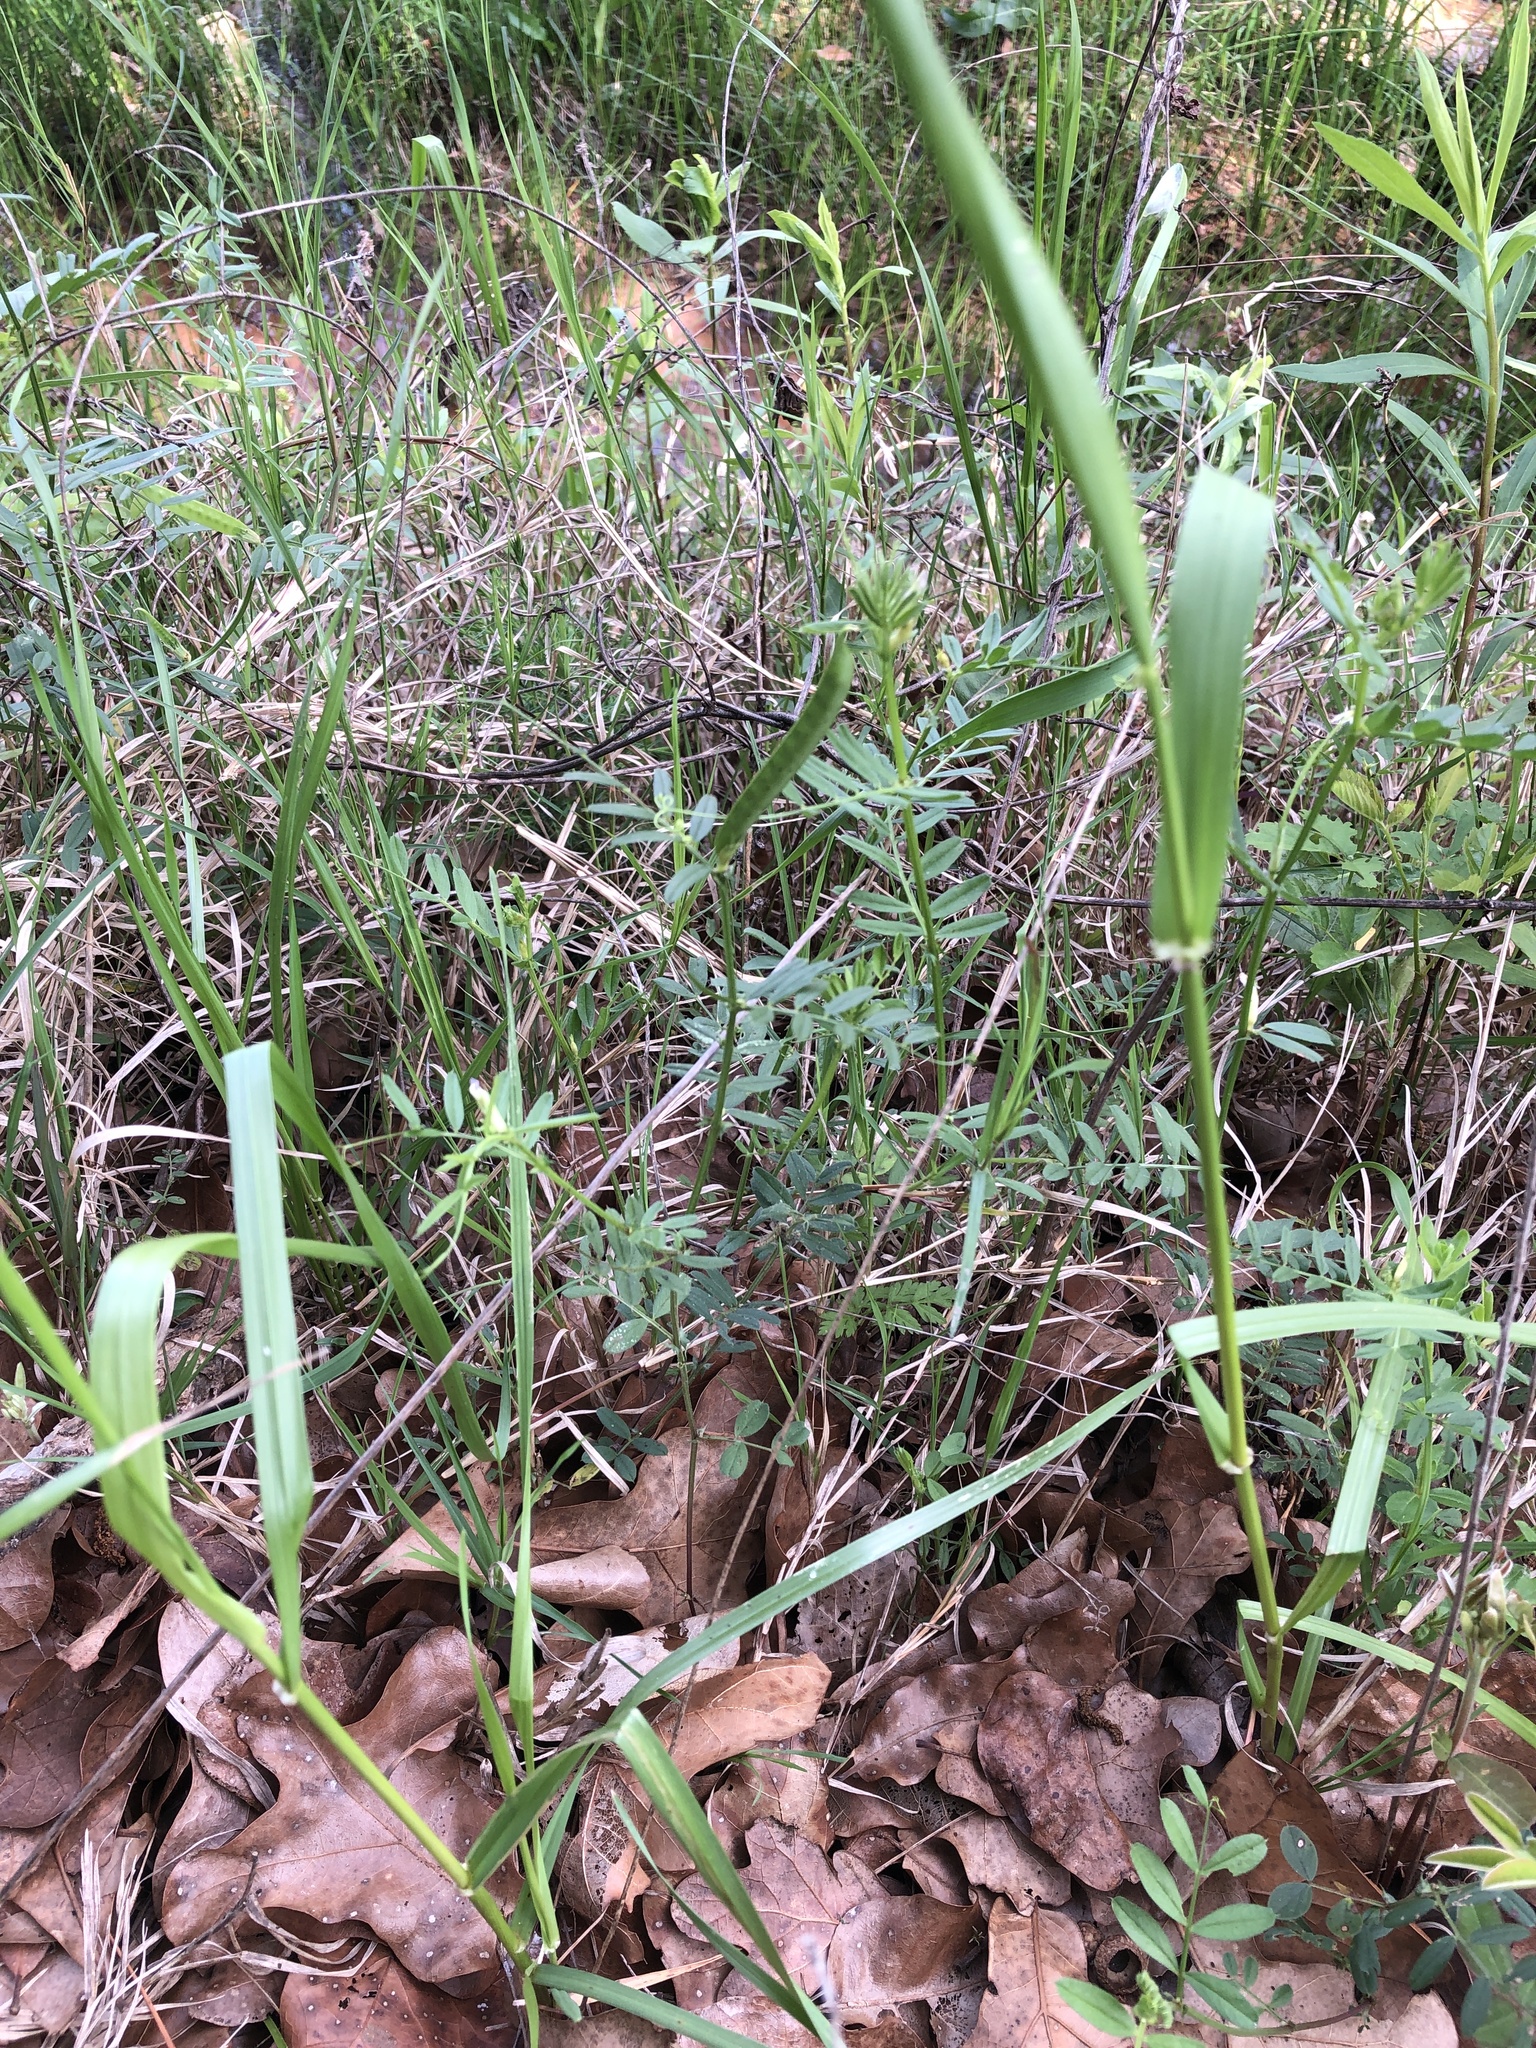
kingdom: Plantae
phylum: Tracheophyta
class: Magnoliopsida
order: Fabales
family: Fabaceae
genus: Vicia
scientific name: Vicia sativa
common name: Garden vetch
